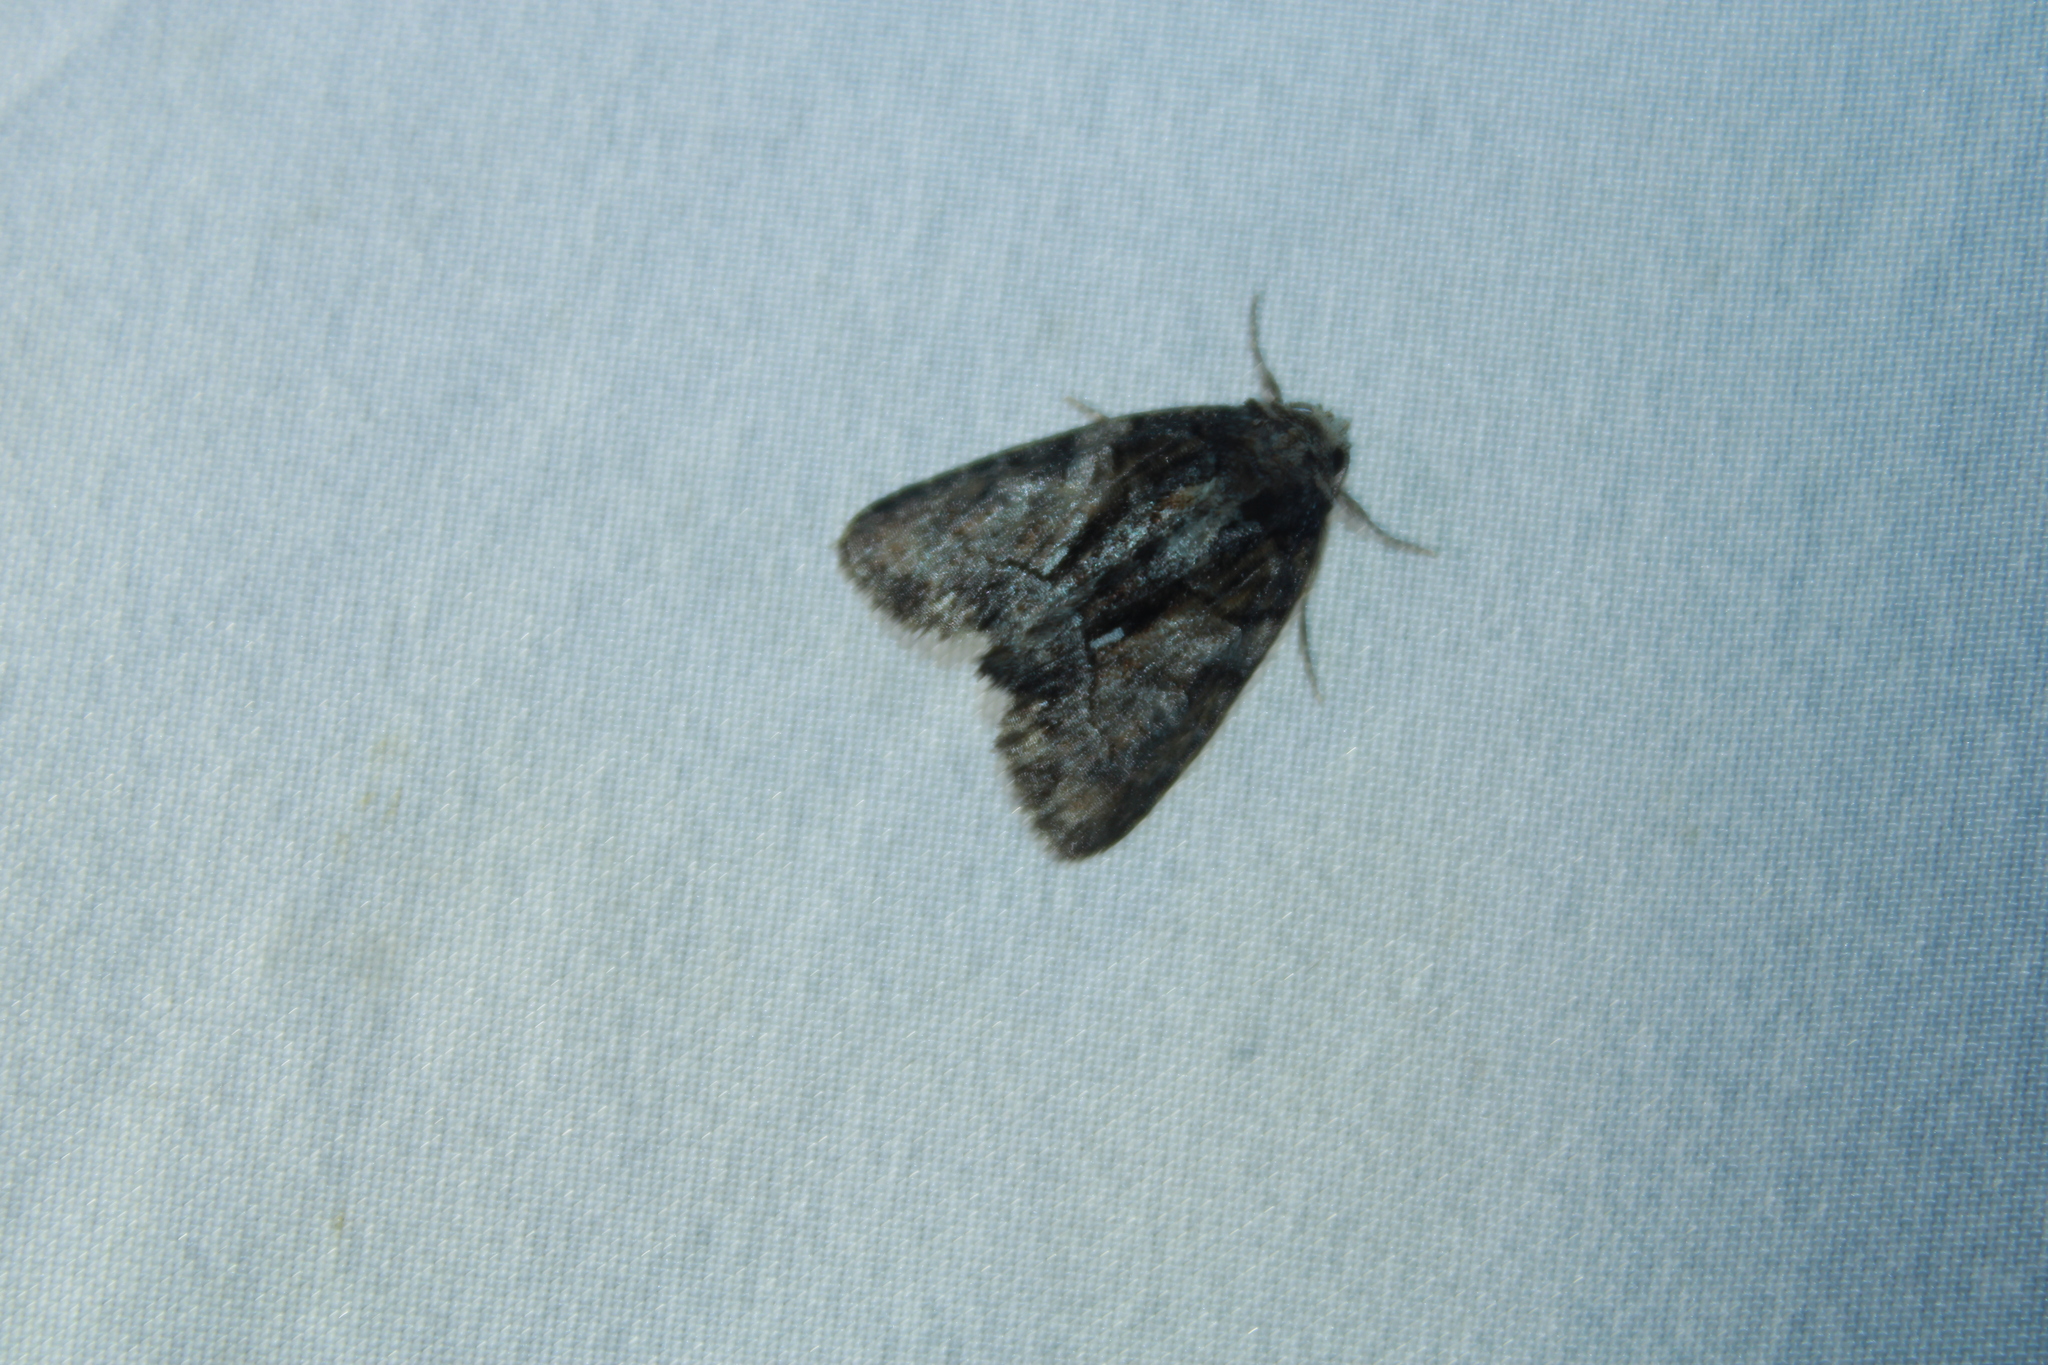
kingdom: Animalia
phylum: Arthropoda
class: Insecta
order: Lepidoptera
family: Noctuidae
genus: Chytonix
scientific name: Chytonix palliatricula
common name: Cloaked marvel
